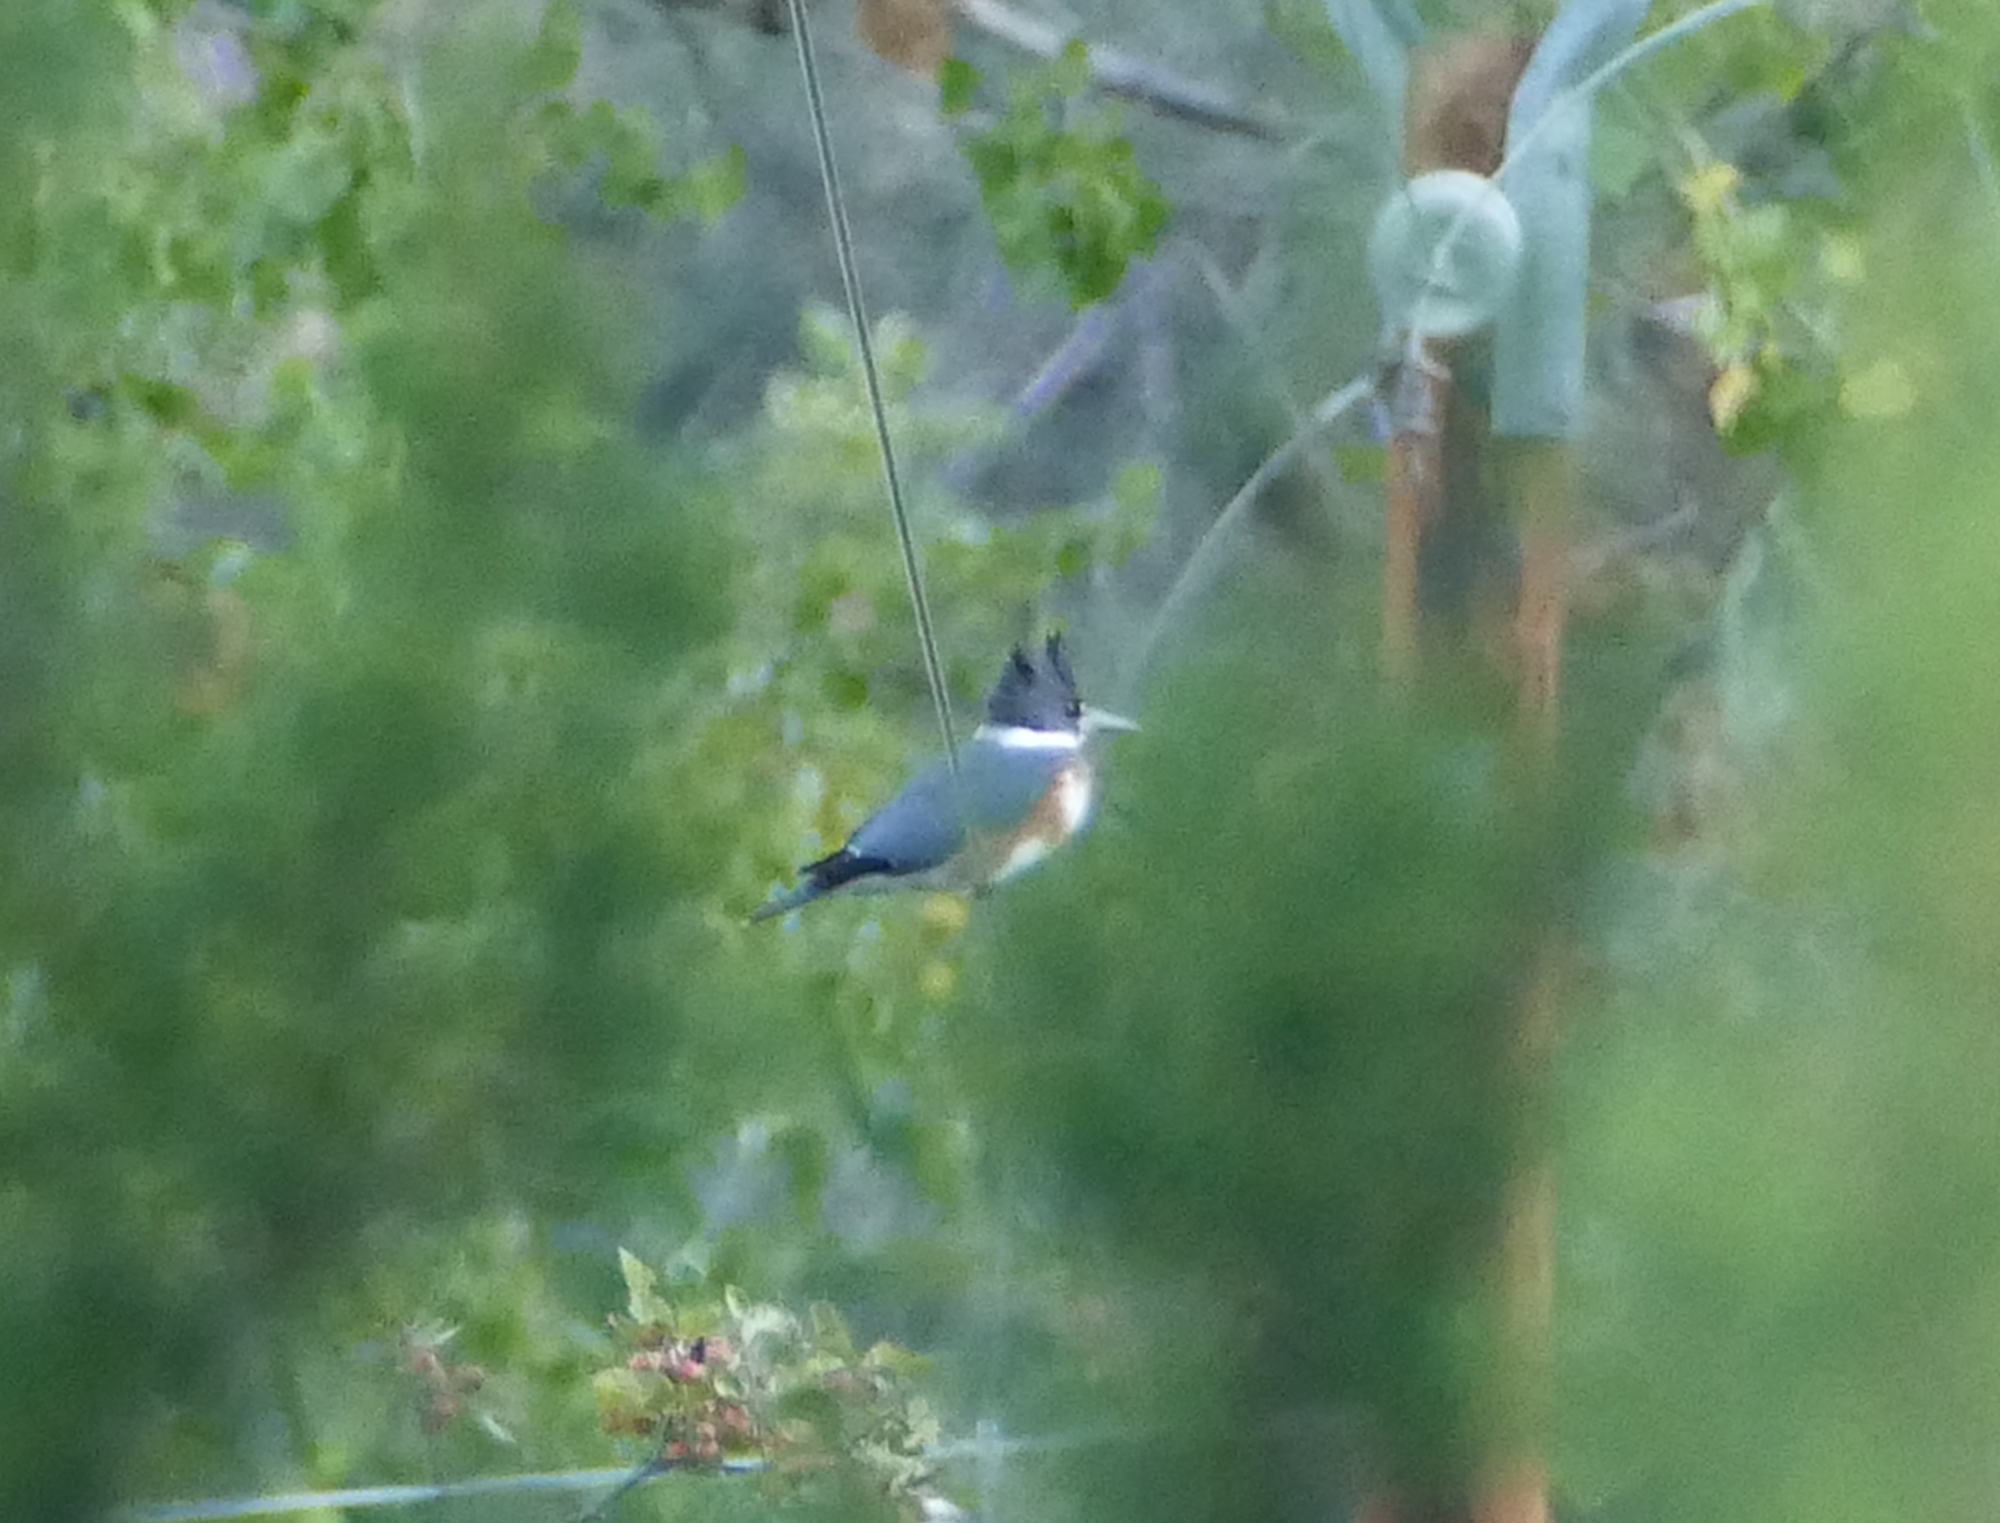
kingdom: Animalia
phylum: Chordata
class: Aves
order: Coraciiformes
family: Alcedinidae
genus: Megaceryle
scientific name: Megaceryle alcyon
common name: Belted kingfisher
